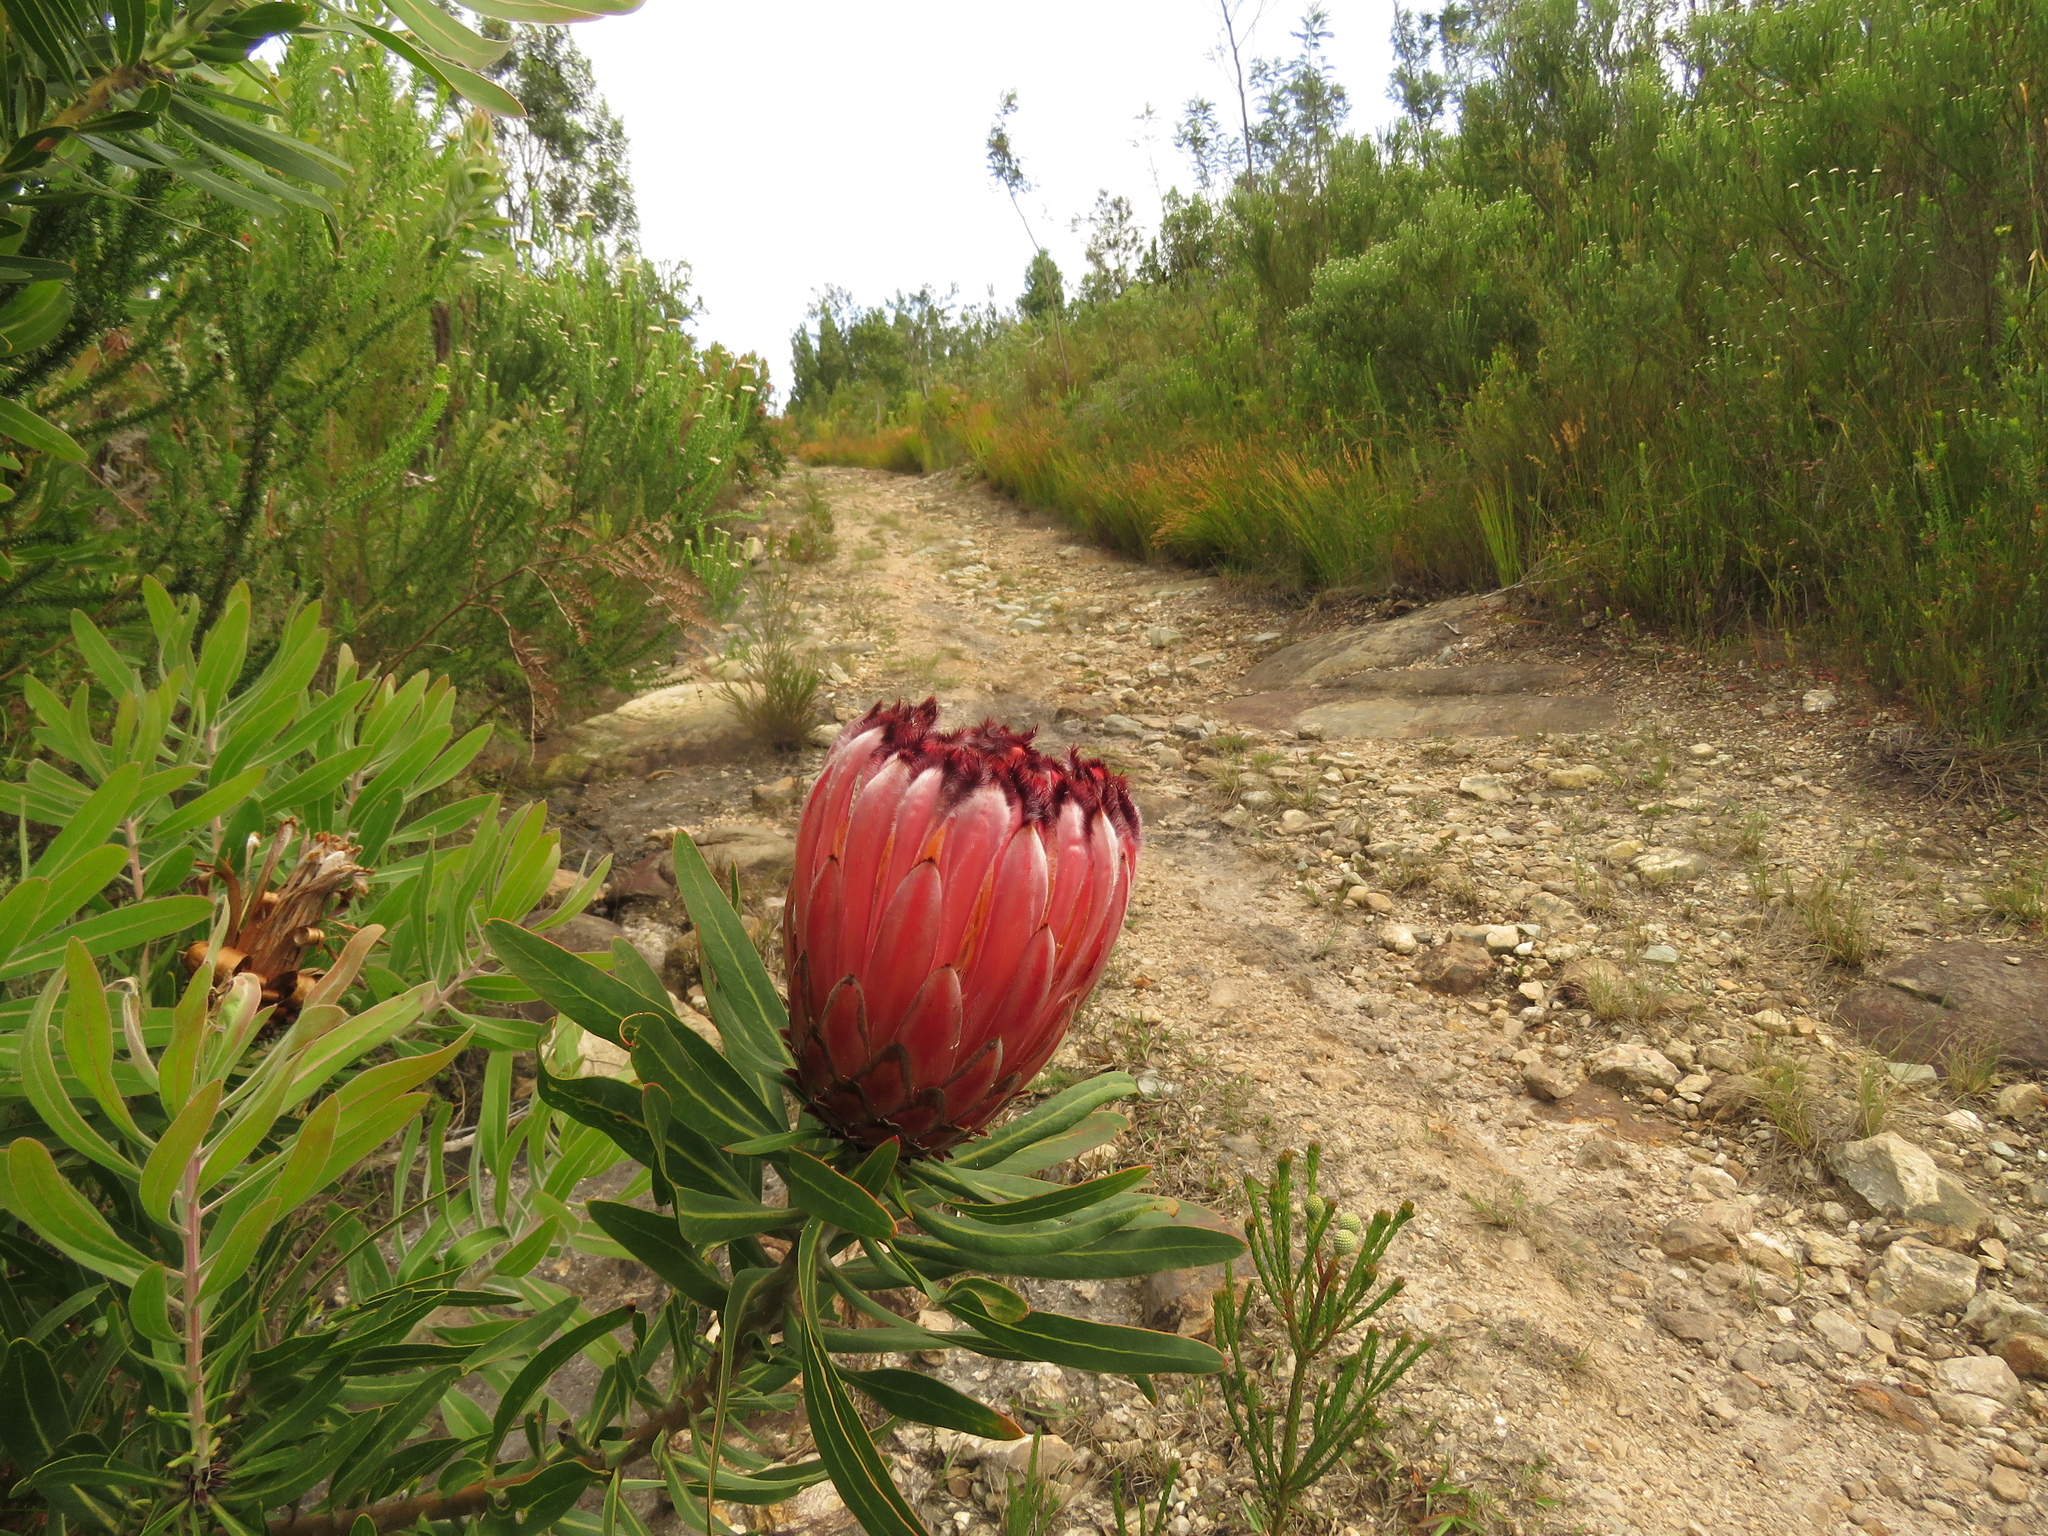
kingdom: Plantae
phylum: Tracheophyta
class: Magnoliopsida
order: Proteales
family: Proteaceae
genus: Protea
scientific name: Protea neriifolia
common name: Blue sugarbush
